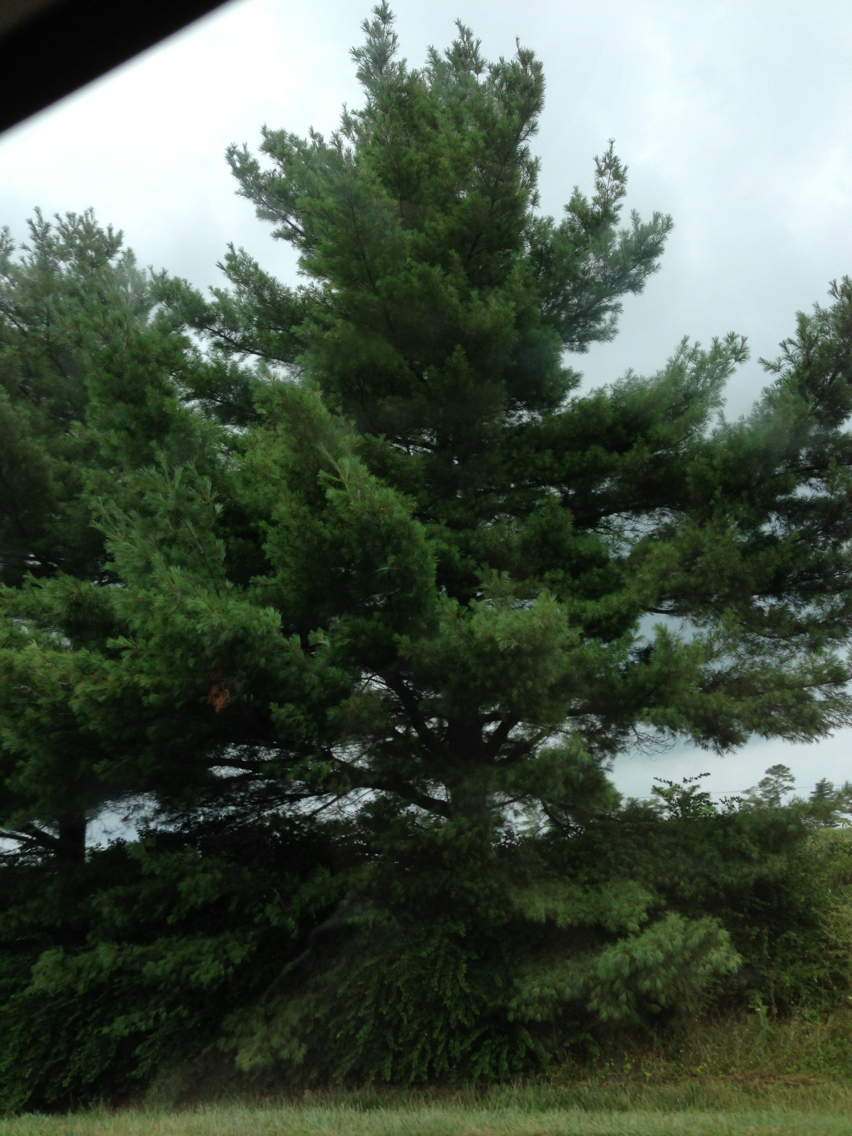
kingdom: Plantae
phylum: Tracheophyta
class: Pinopsida
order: Pinales
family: Pinaceae
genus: Pinus
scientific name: Pinus strobus
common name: Weymouth pine
